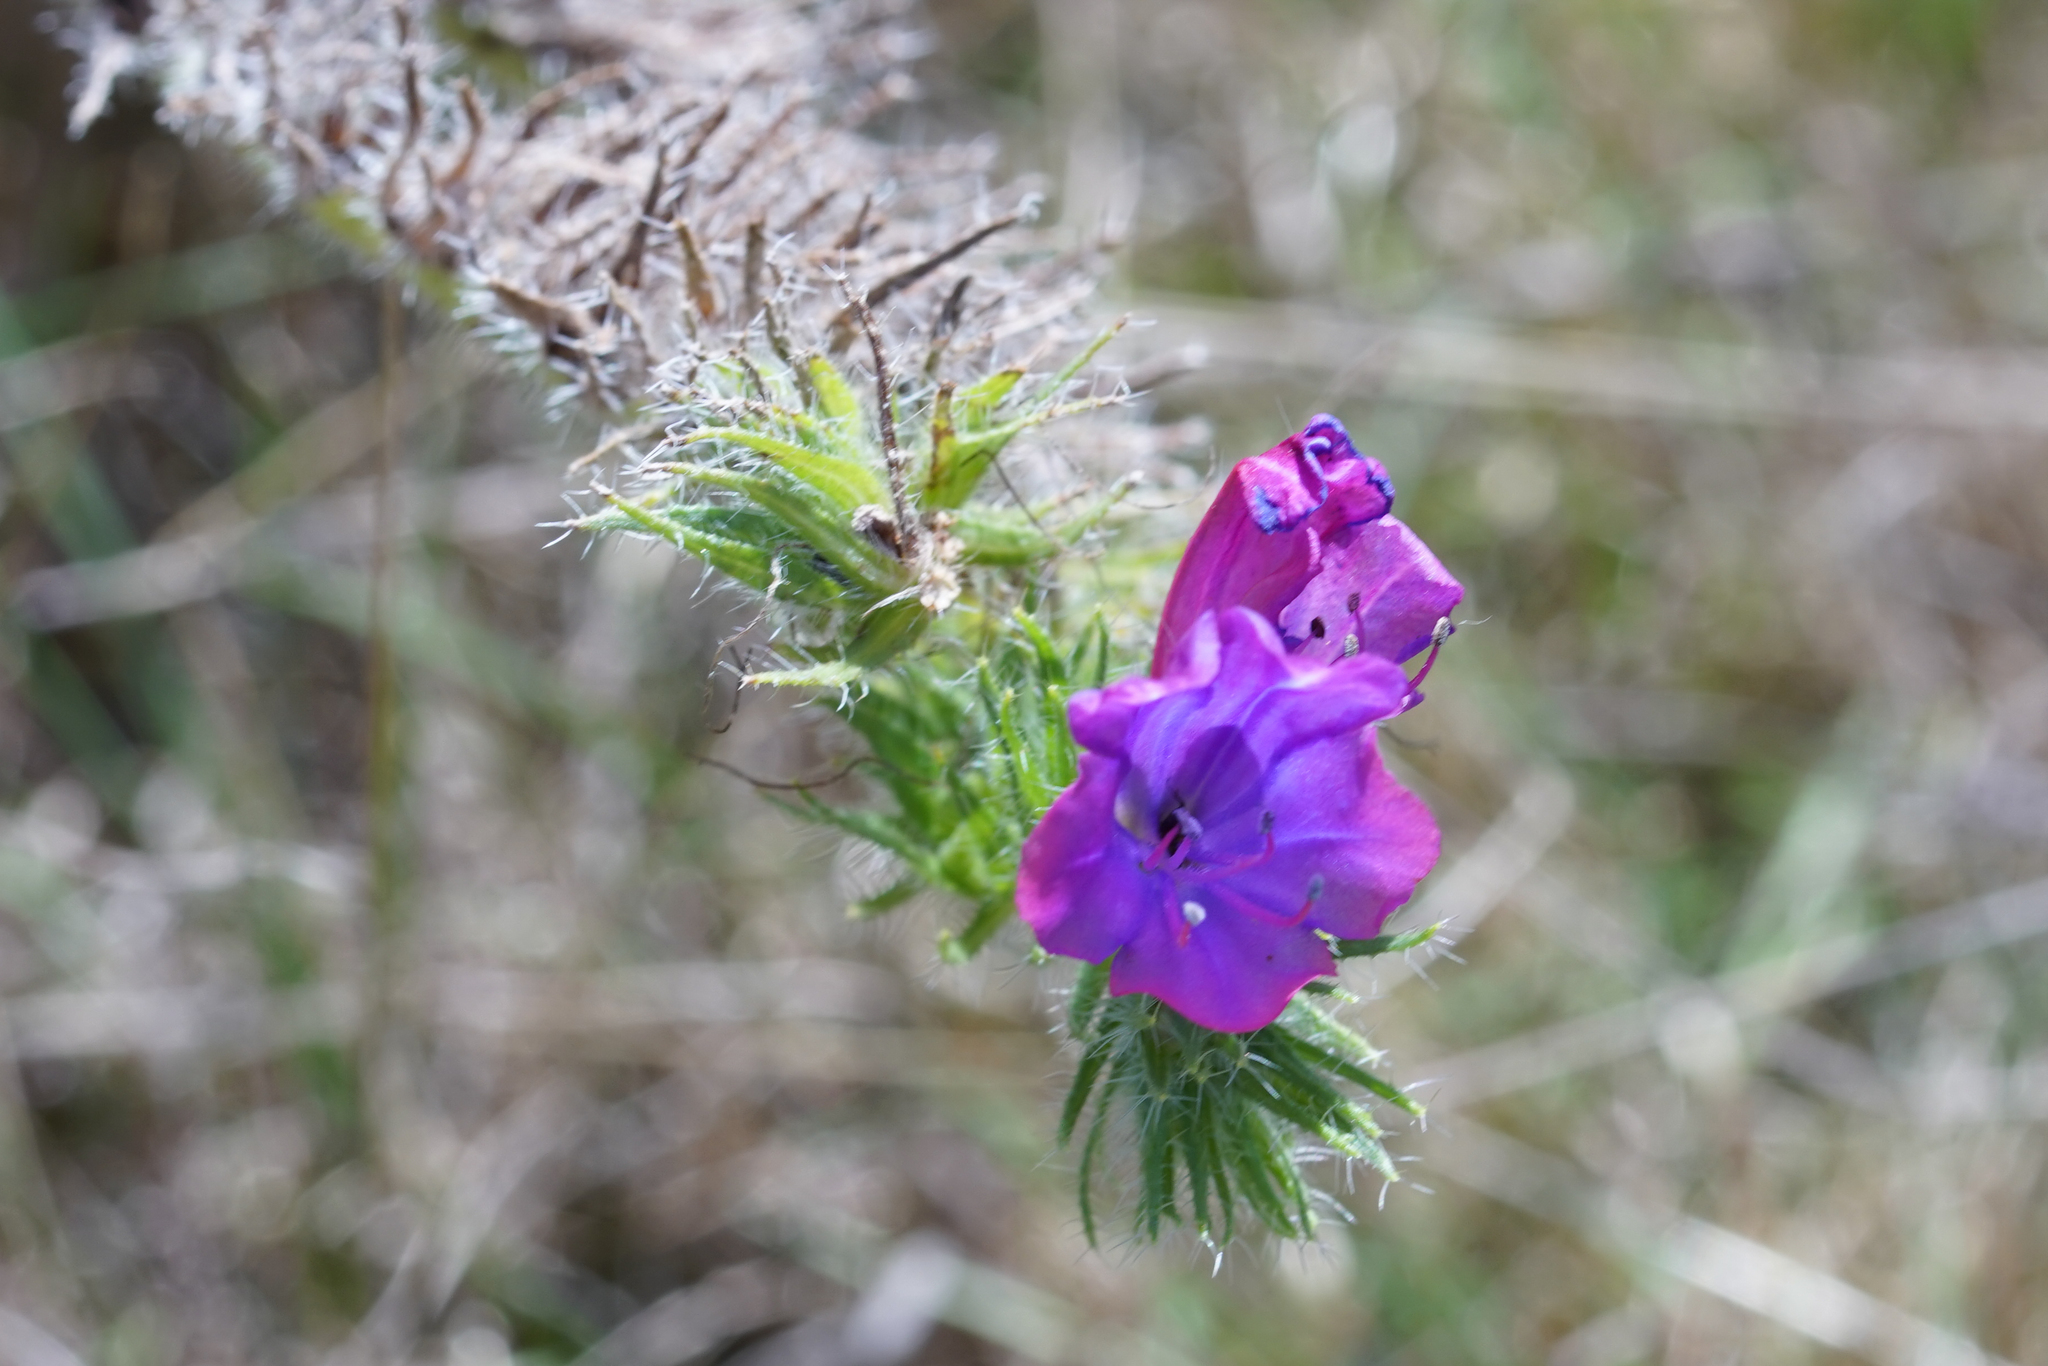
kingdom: Plantae
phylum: Tracheophyta
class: Magnoliopsida
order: Boraginales
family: Boraginaceae
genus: Echium
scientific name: Echium plantagineum
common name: Purple viper's-bugloss
